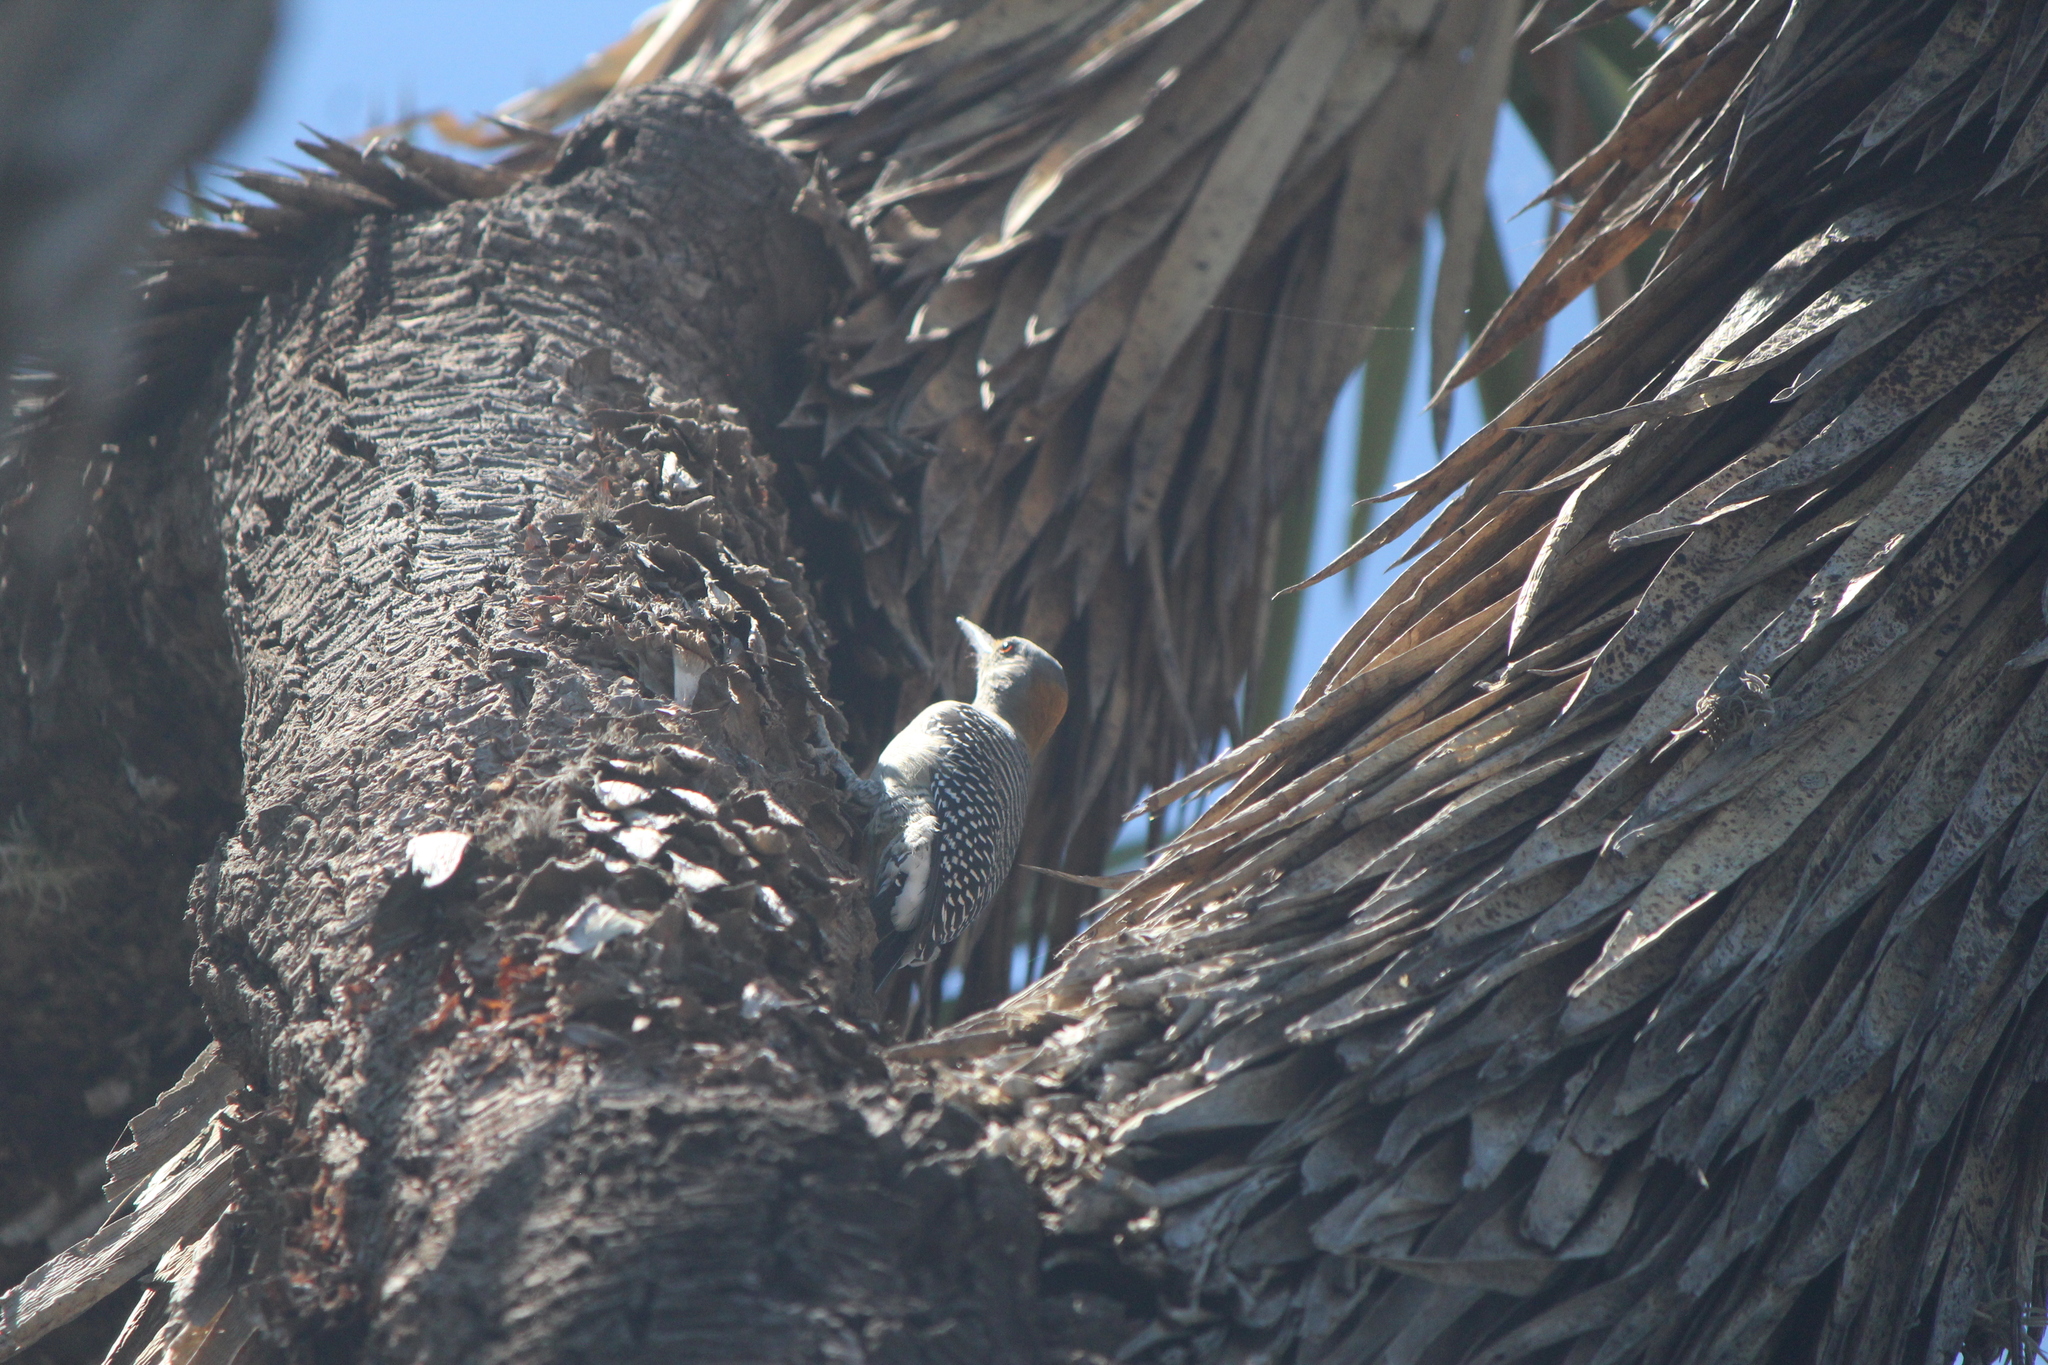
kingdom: Animalia
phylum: Chordata
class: Aves
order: Piciformes
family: Picidae
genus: Melanerpes
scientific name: Melanerpes aurifrons
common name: Golden-fronted woodpecker
